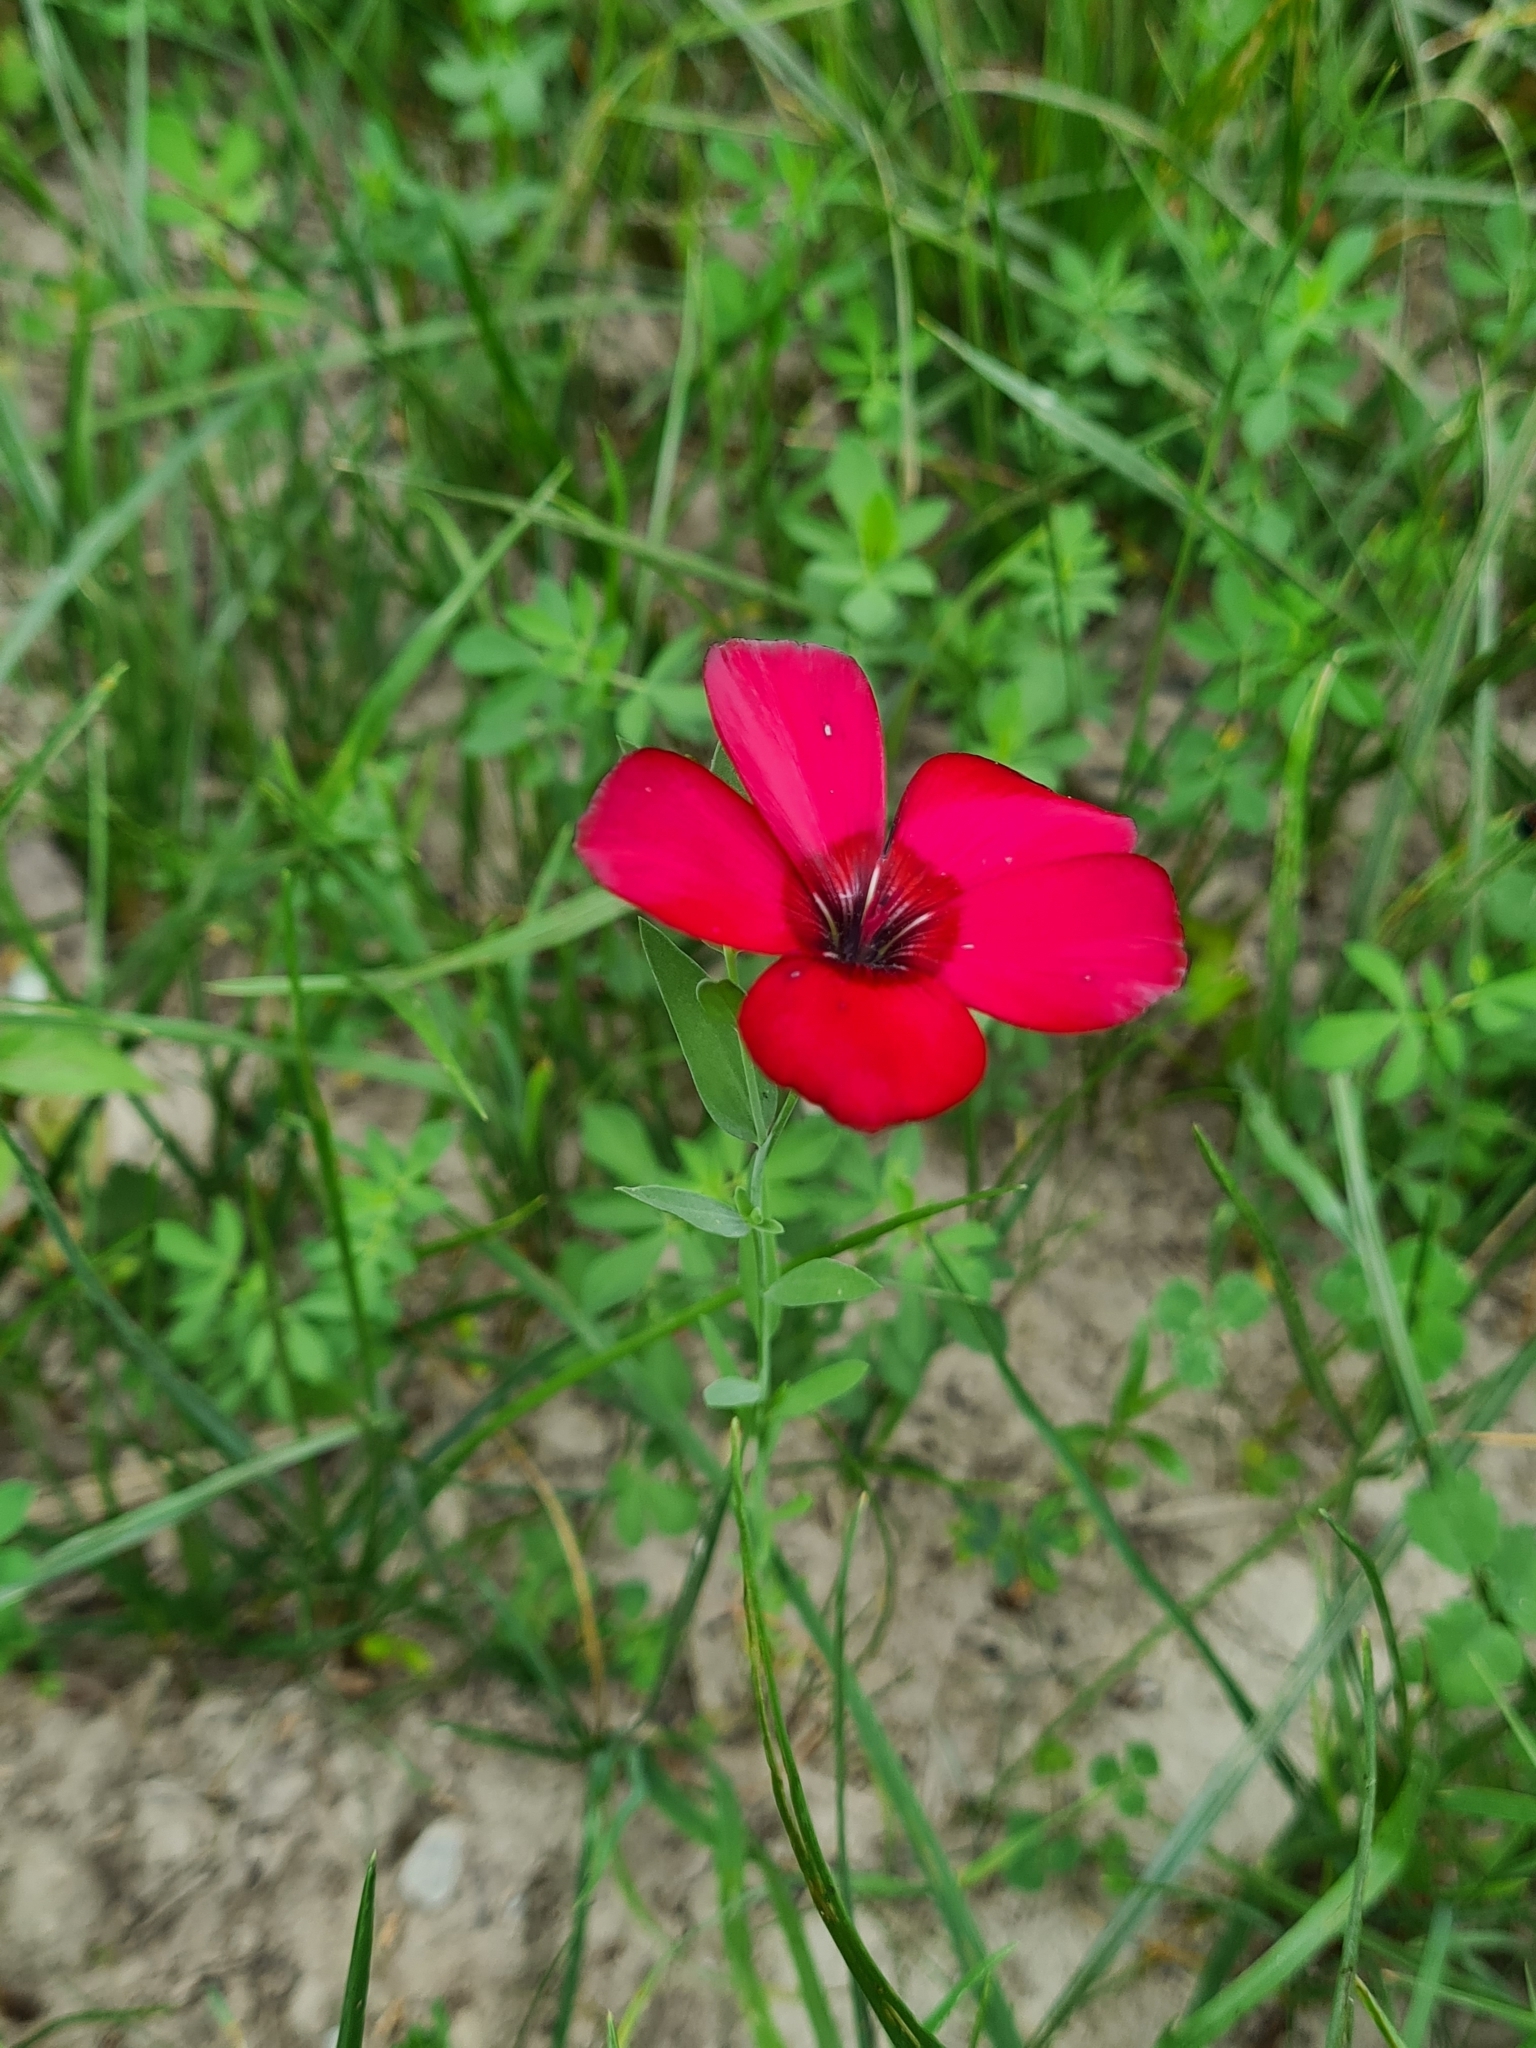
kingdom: Plantae
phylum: Tracheophyta
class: Magnoliopsida
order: Malpighiales
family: Linaceae
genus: Linum
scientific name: Linum grandiflorum
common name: Crimson flax
